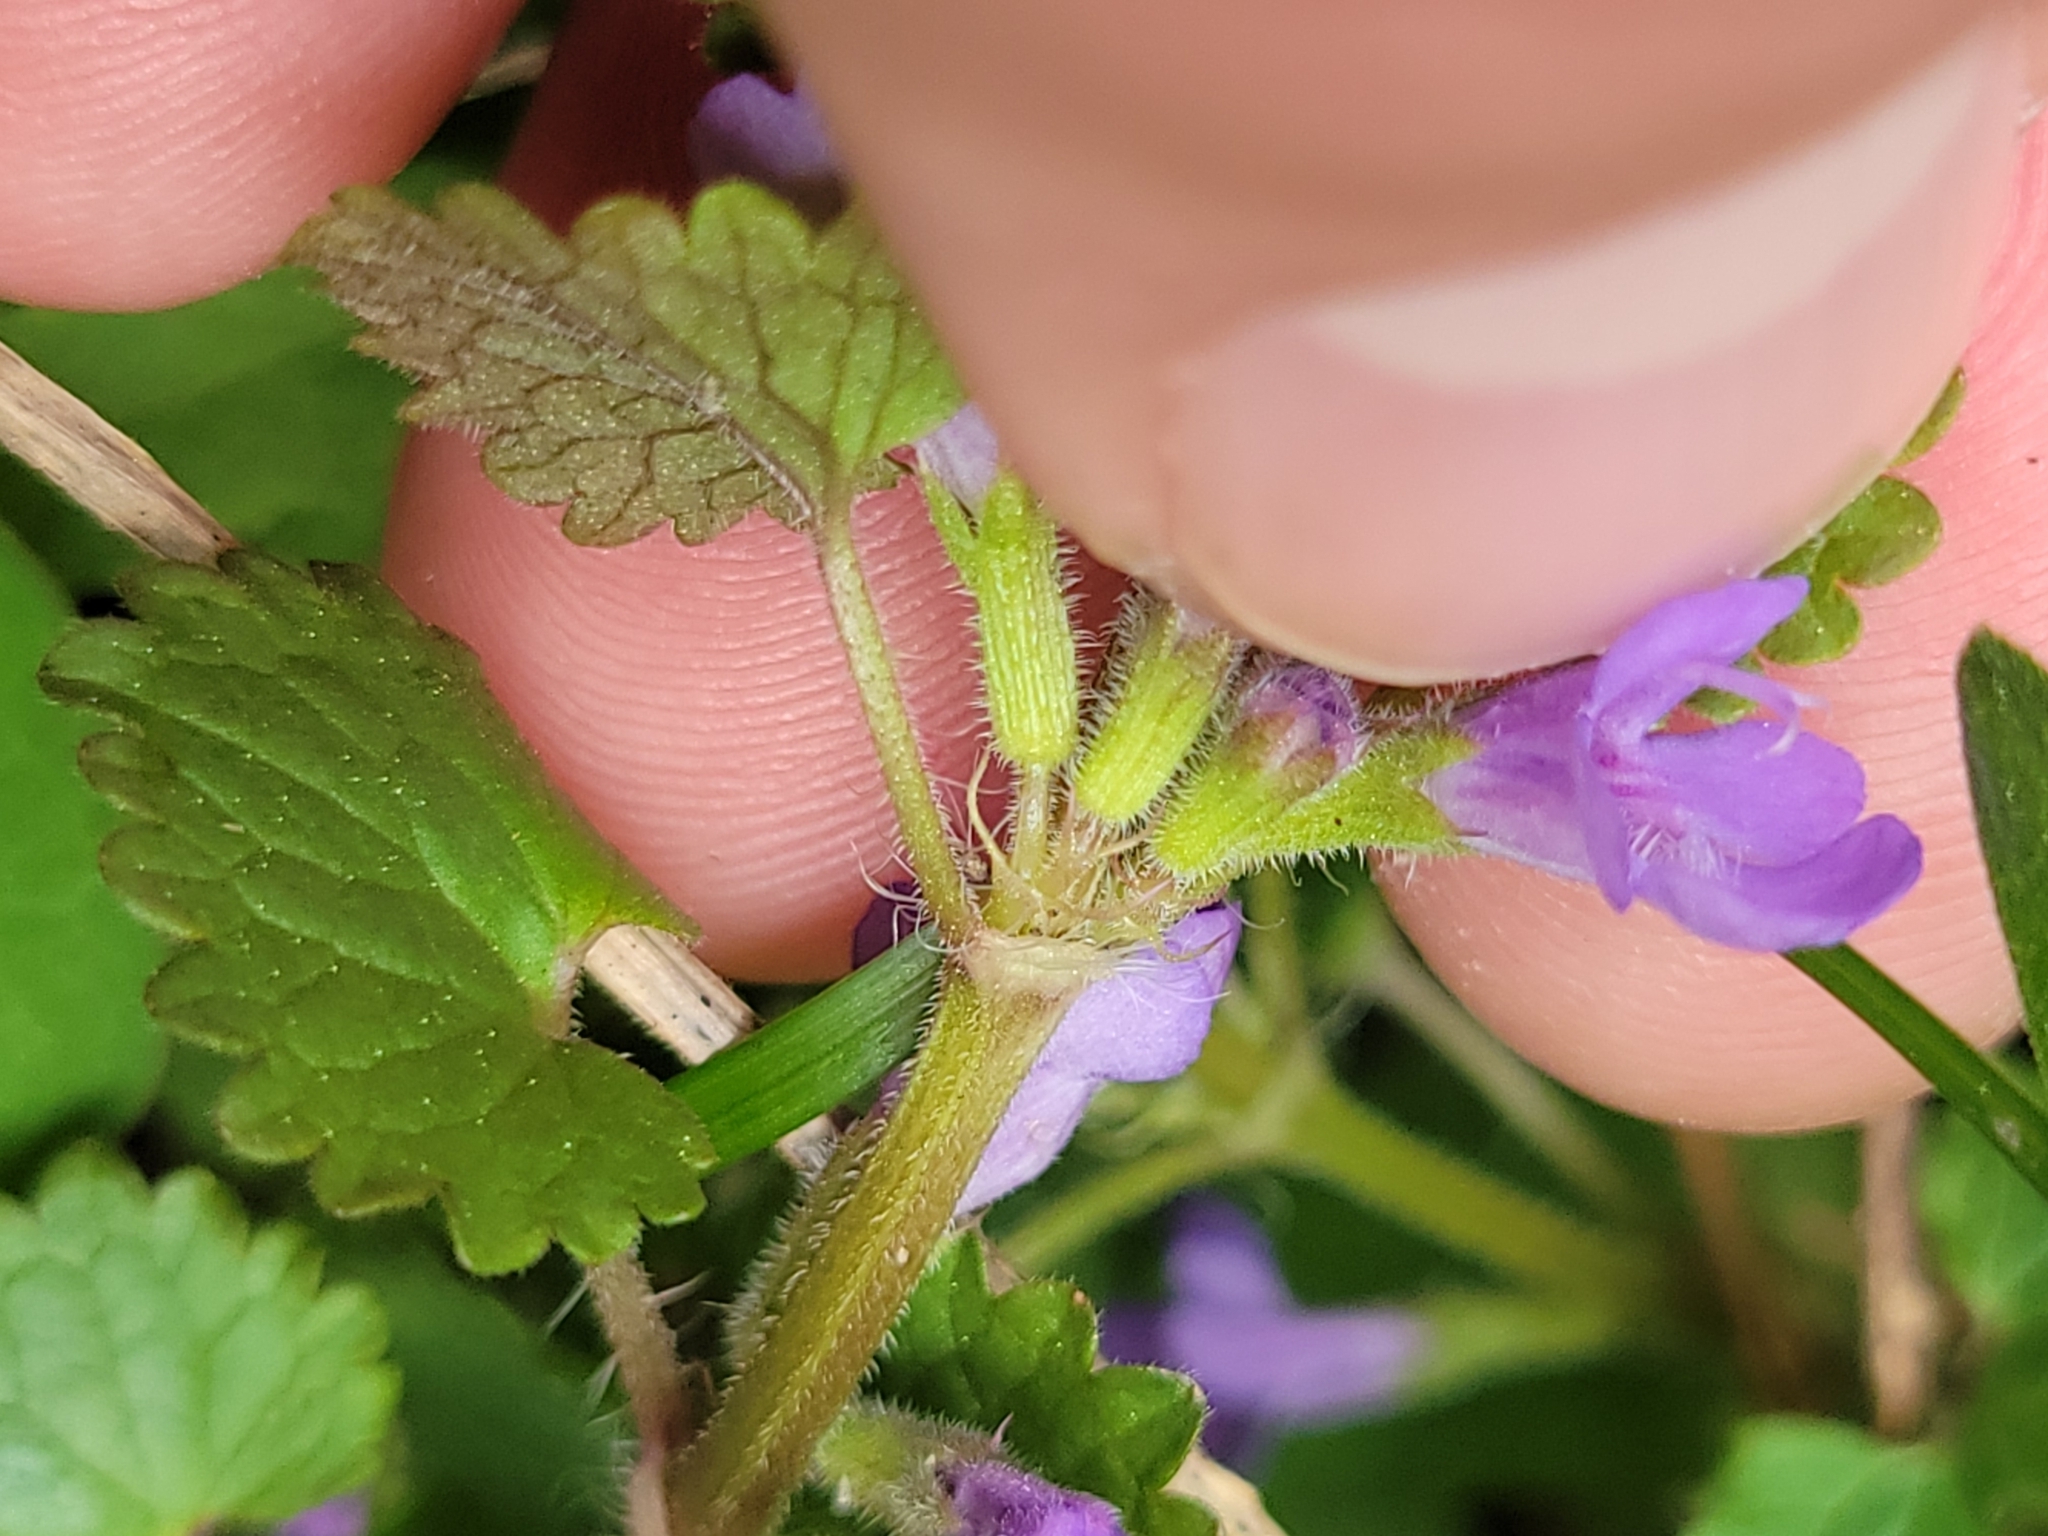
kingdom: Plantae
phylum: Tracheophyta
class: Magnoliopsida
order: Lamiales
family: Lamiaceae
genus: Glechoma
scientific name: Glechoma hederacea
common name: Ground ivy
